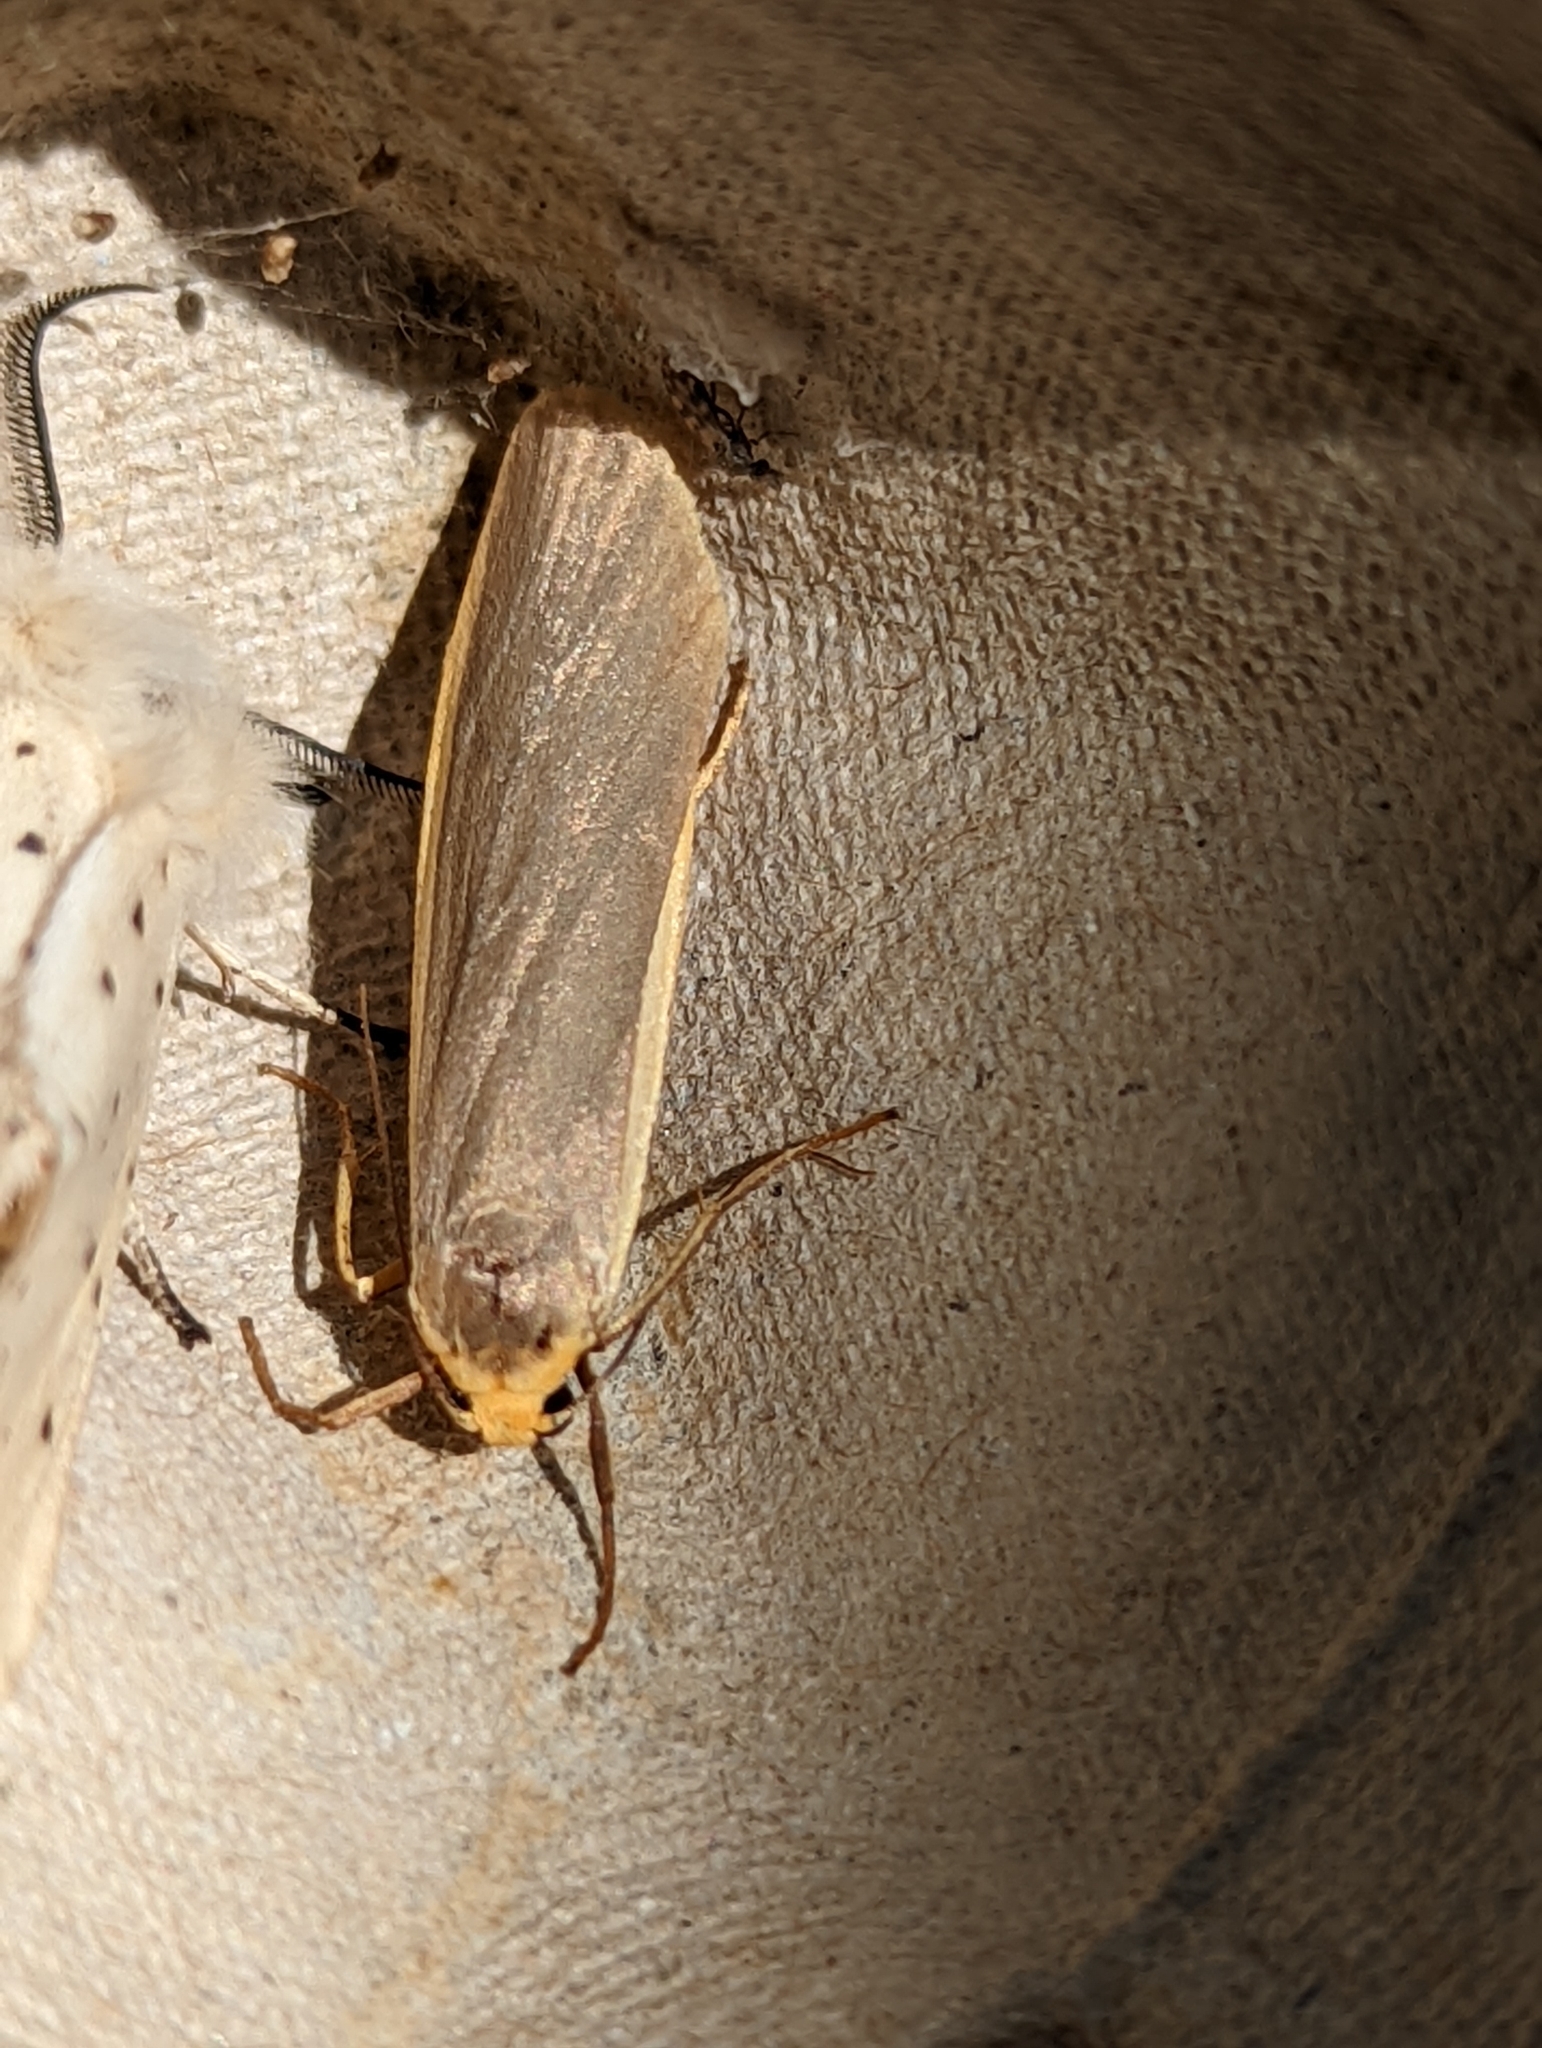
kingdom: Animalia
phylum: Arthropoda
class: Insecta
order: Lepidoptera
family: Erebidae
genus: Nyea
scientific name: Nyea lurideola
